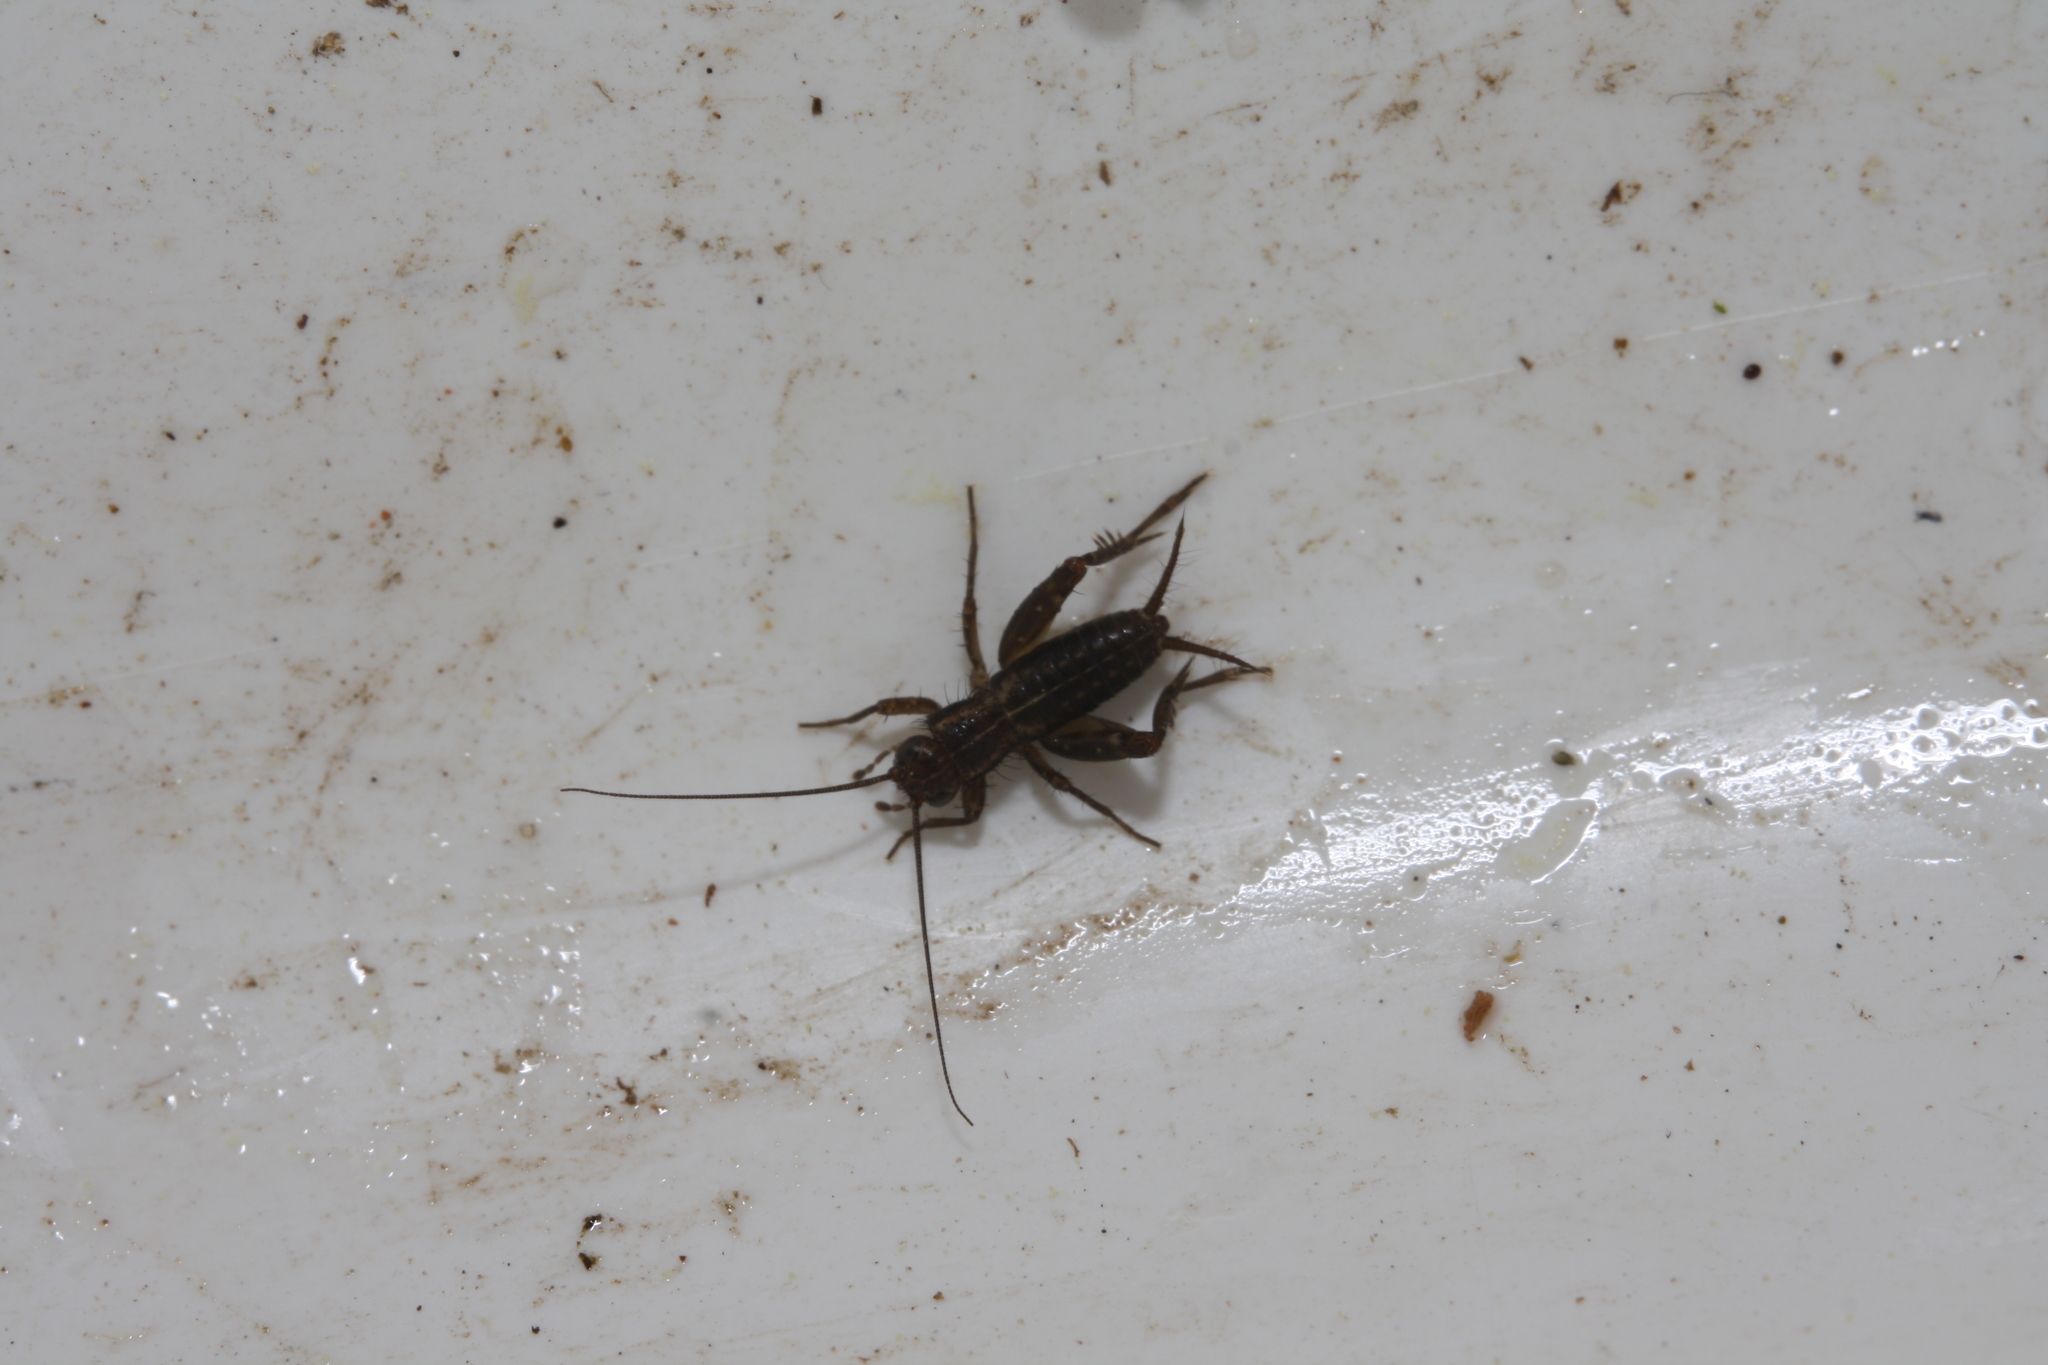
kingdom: Animalia
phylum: Arthropoda
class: Insecta
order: Orthoptera
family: Trigonidiidae
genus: Pteronemobius
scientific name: Pteronemobius heydenii
